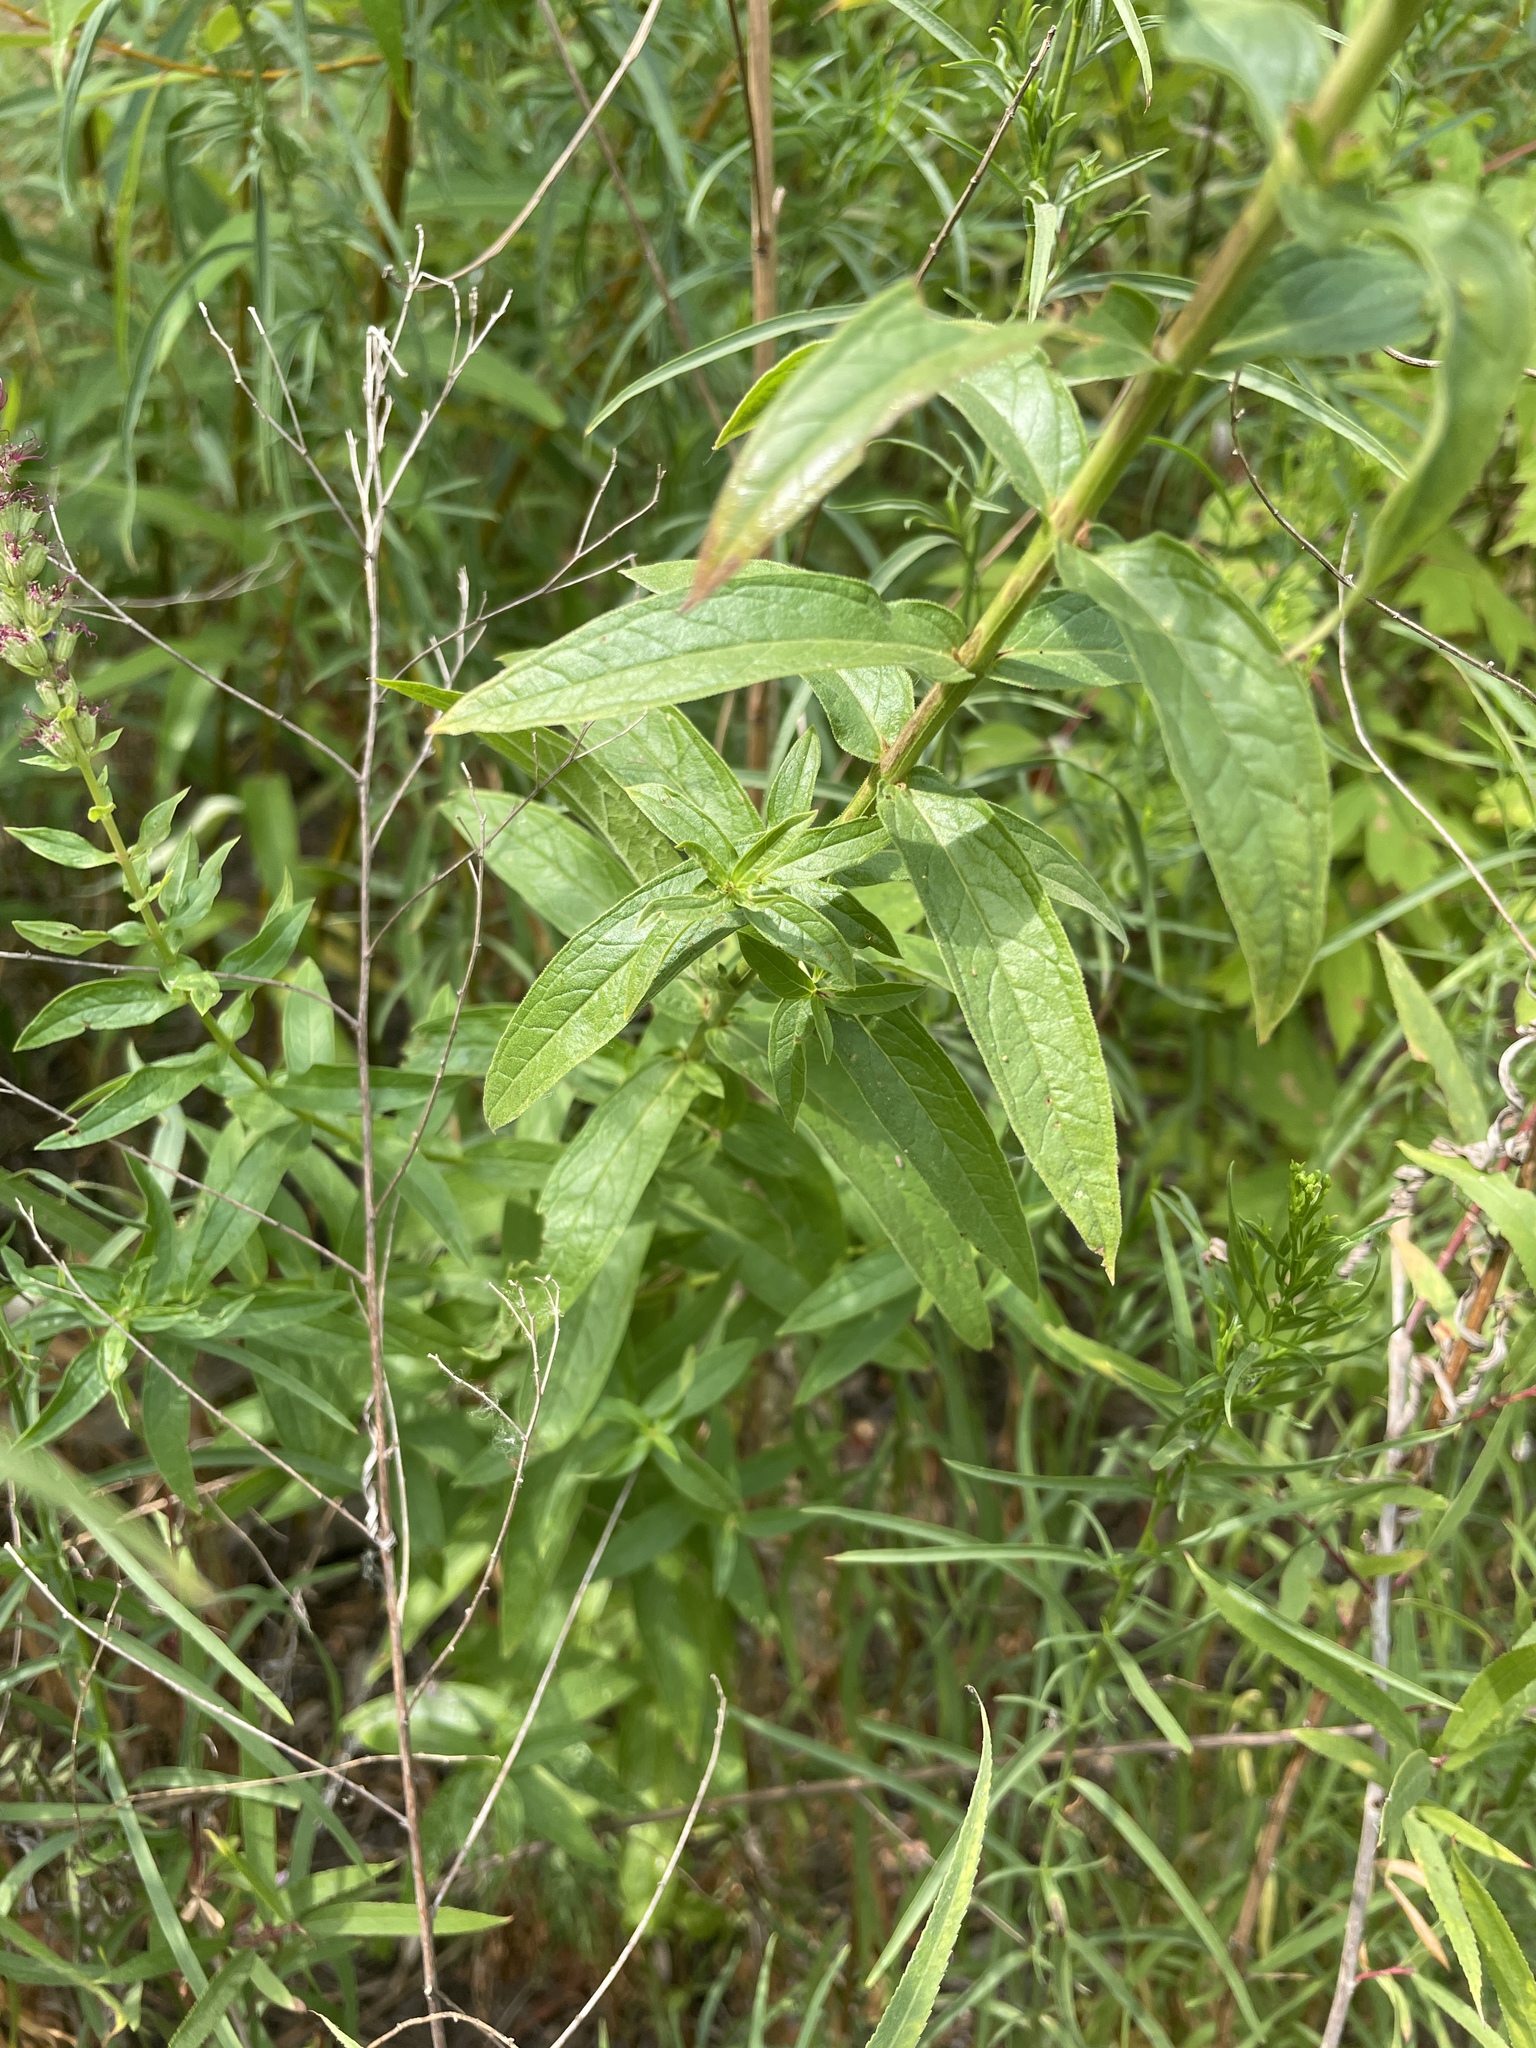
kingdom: Plantae
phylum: Tracheophyta
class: Magnoliopsida
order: Myrtales
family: Lythraceae
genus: Lythrum
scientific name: Lythrum salicaria
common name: Purple loosestrife
